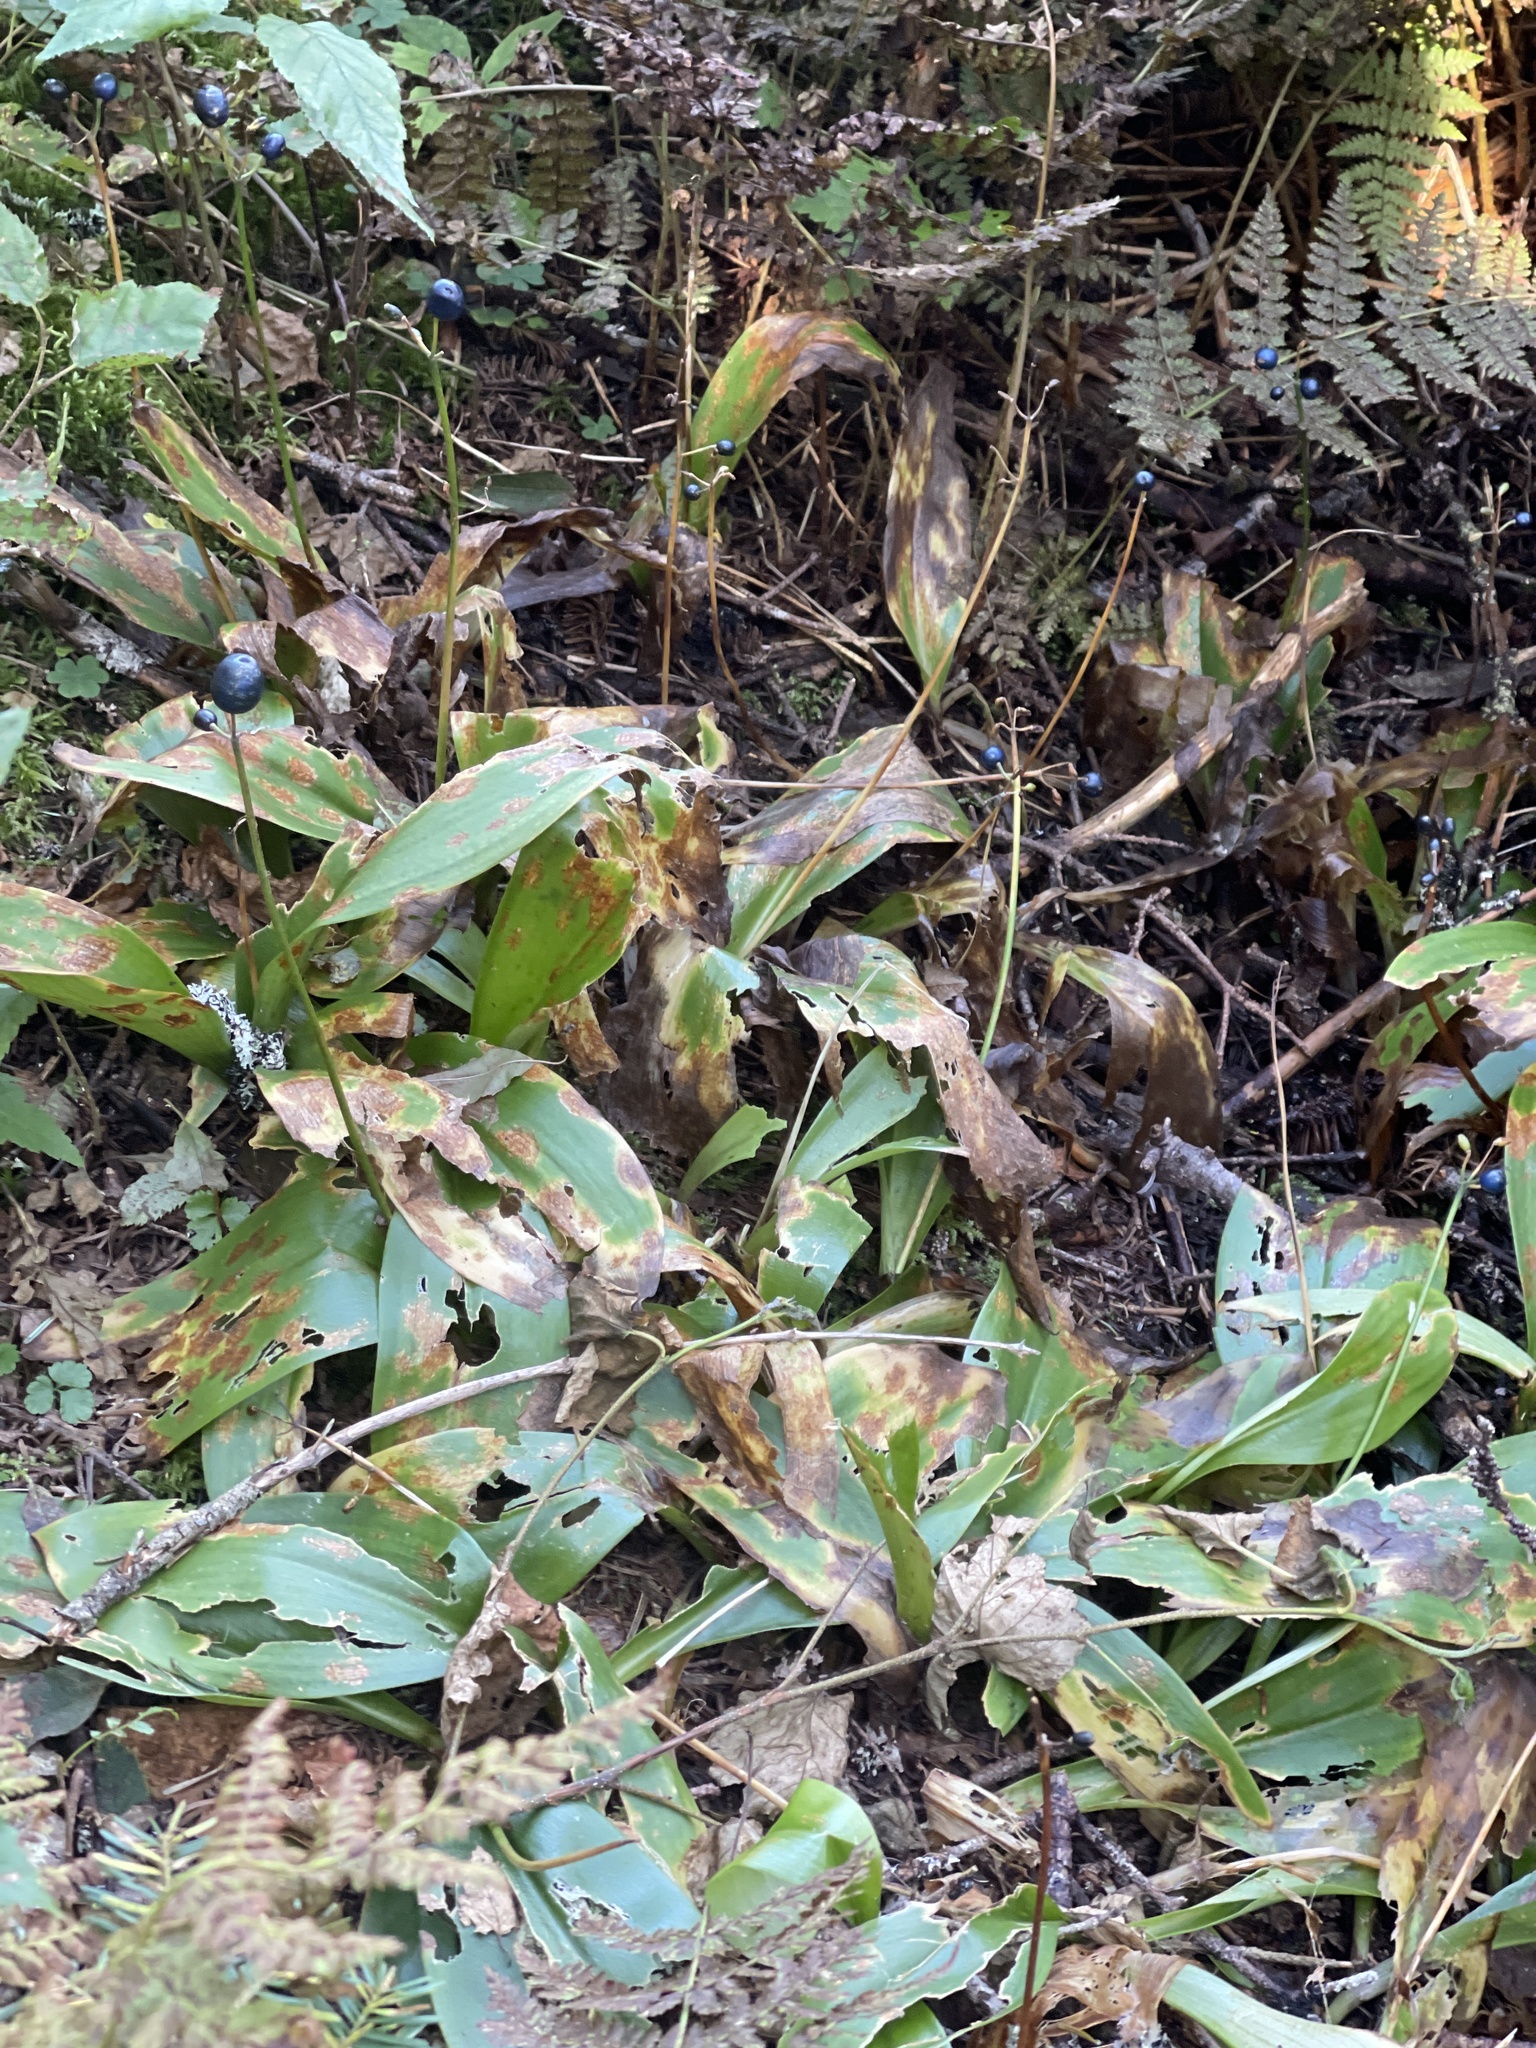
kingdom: Plantae
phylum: Tracheophyta
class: Liliopsida
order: Liliales
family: Liliaceae
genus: Clintonia
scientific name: Clintonia borealis
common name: Yellow clintonia
